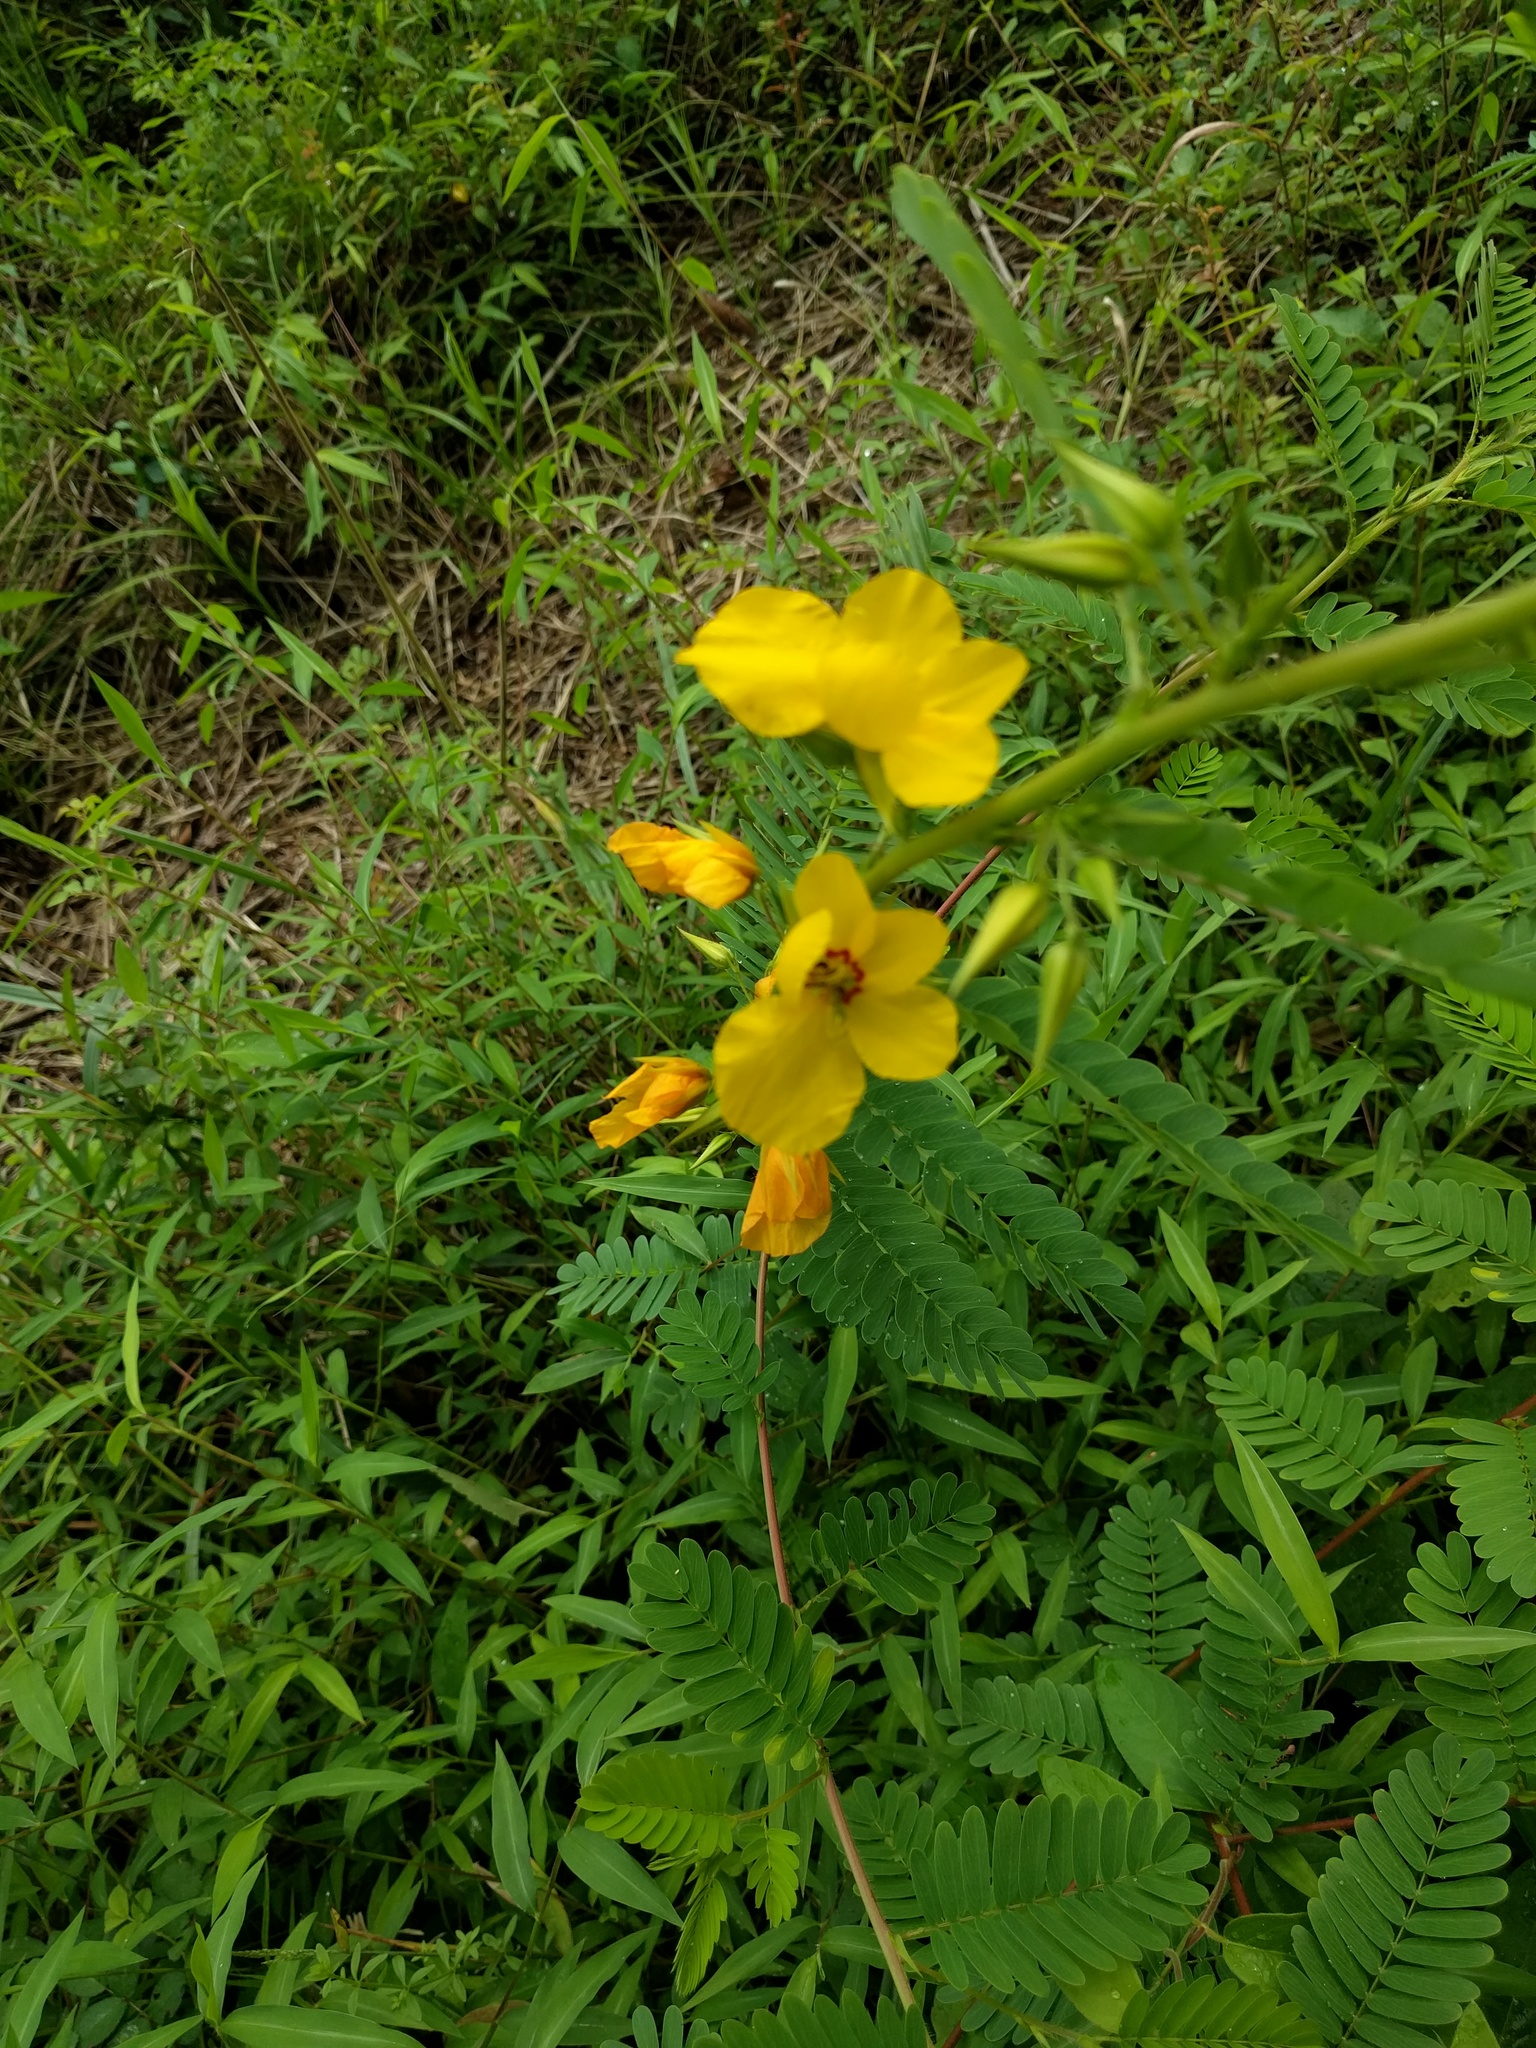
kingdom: Plantae
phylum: Tracheophyta
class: Magnoliopsida
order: Fabales
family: Fabaceae
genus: Chamaecrista
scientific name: Chamaecrista fasciculata
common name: Golden cassia
